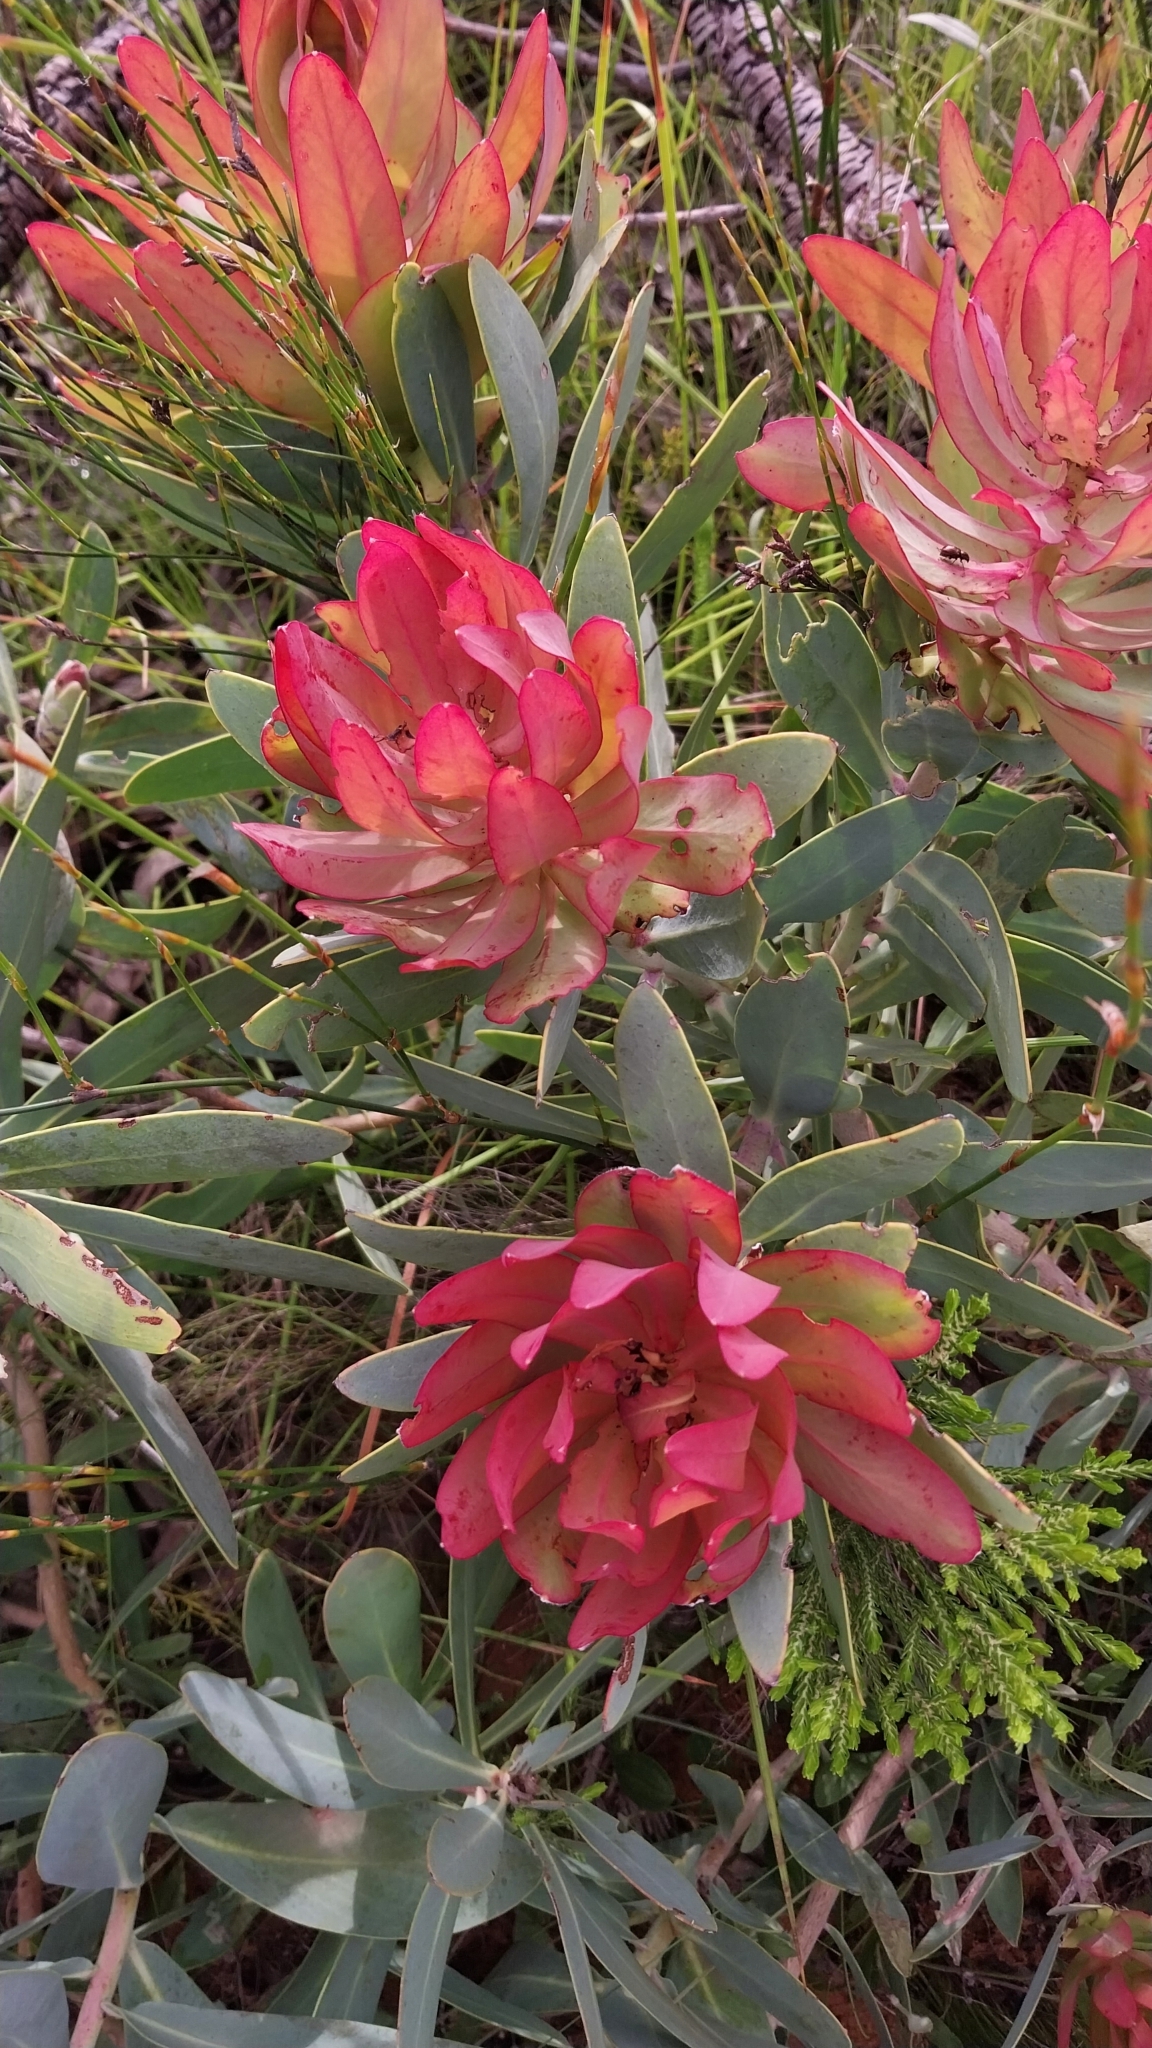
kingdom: Plantae
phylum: Tracheophyta
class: Magnoliopsida
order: Proteales
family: Proteaceae
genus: Protea
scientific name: Protea nitida
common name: Tree protea
